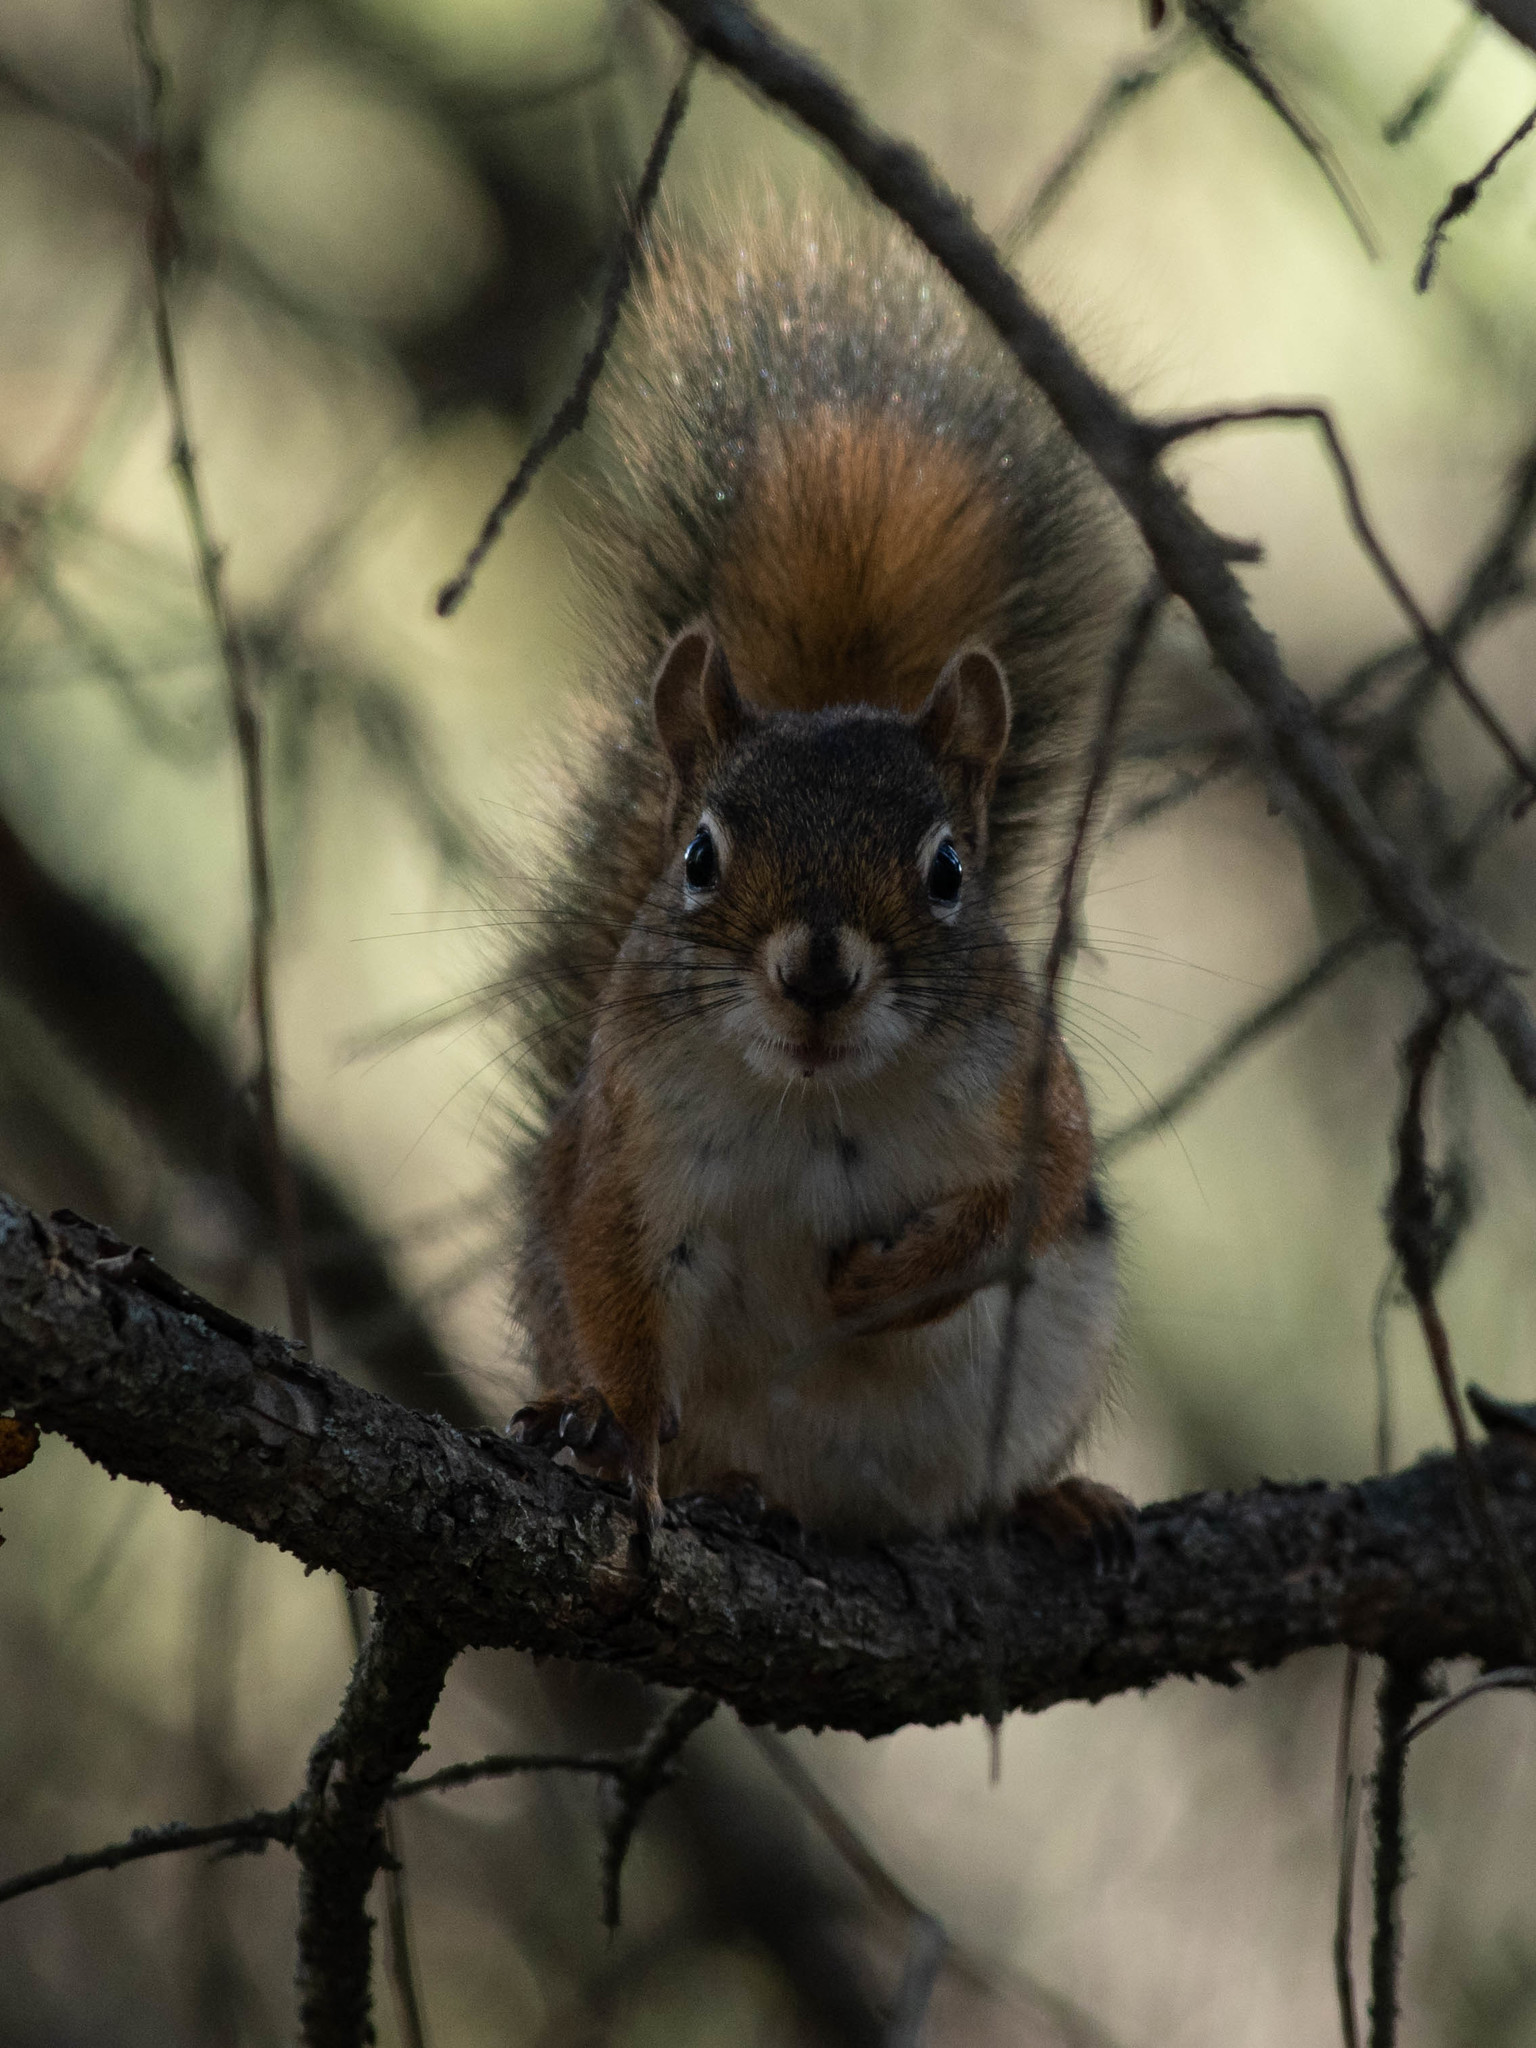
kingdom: Animalia
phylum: Chordata
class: Mammalia
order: Rodentia
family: Sciuridae
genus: Tamiasciurus
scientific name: Tamiasciurus hudsonicus
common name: Red squirrel
